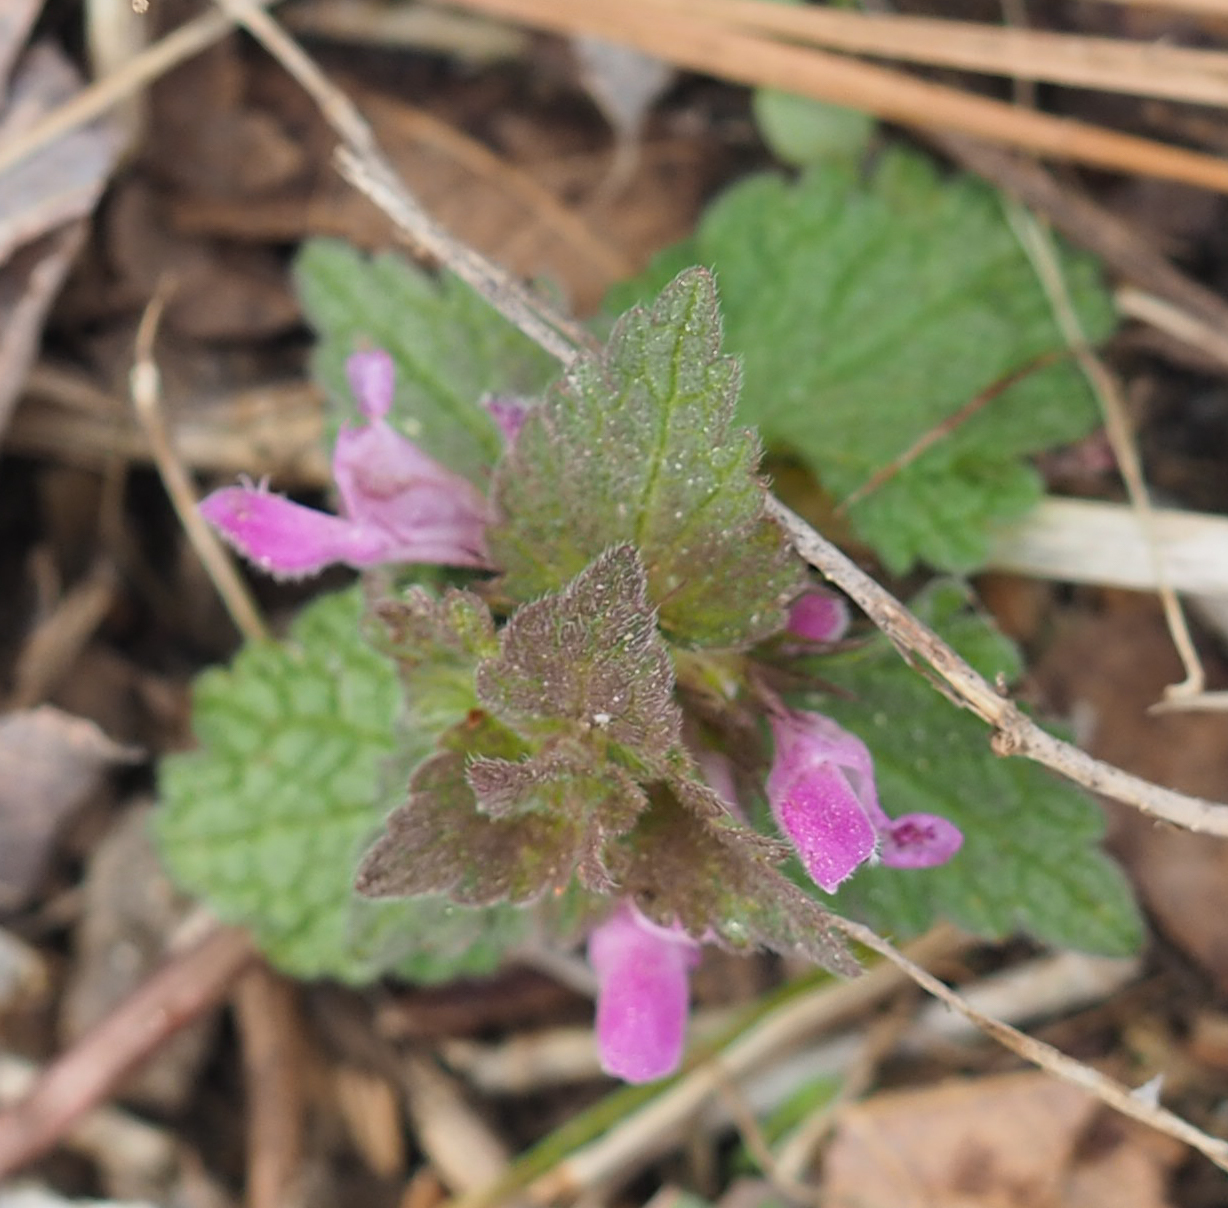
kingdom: Plantae
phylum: Tracheophyta
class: Magnoliopsida
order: Lamiales
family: Lamiaceae
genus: Lamium
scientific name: Lamium purpureum
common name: Red dead-nettle
